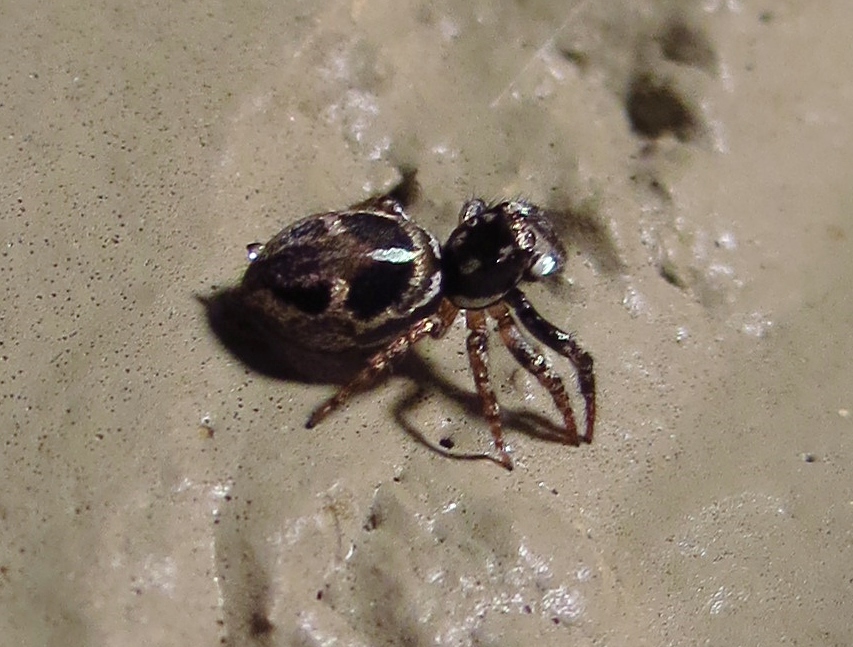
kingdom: Animalia
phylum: Arthropoda
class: Arachnida
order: Araneae
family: Salticidae
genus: Anasaitis
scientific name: Anasaitis canosa
